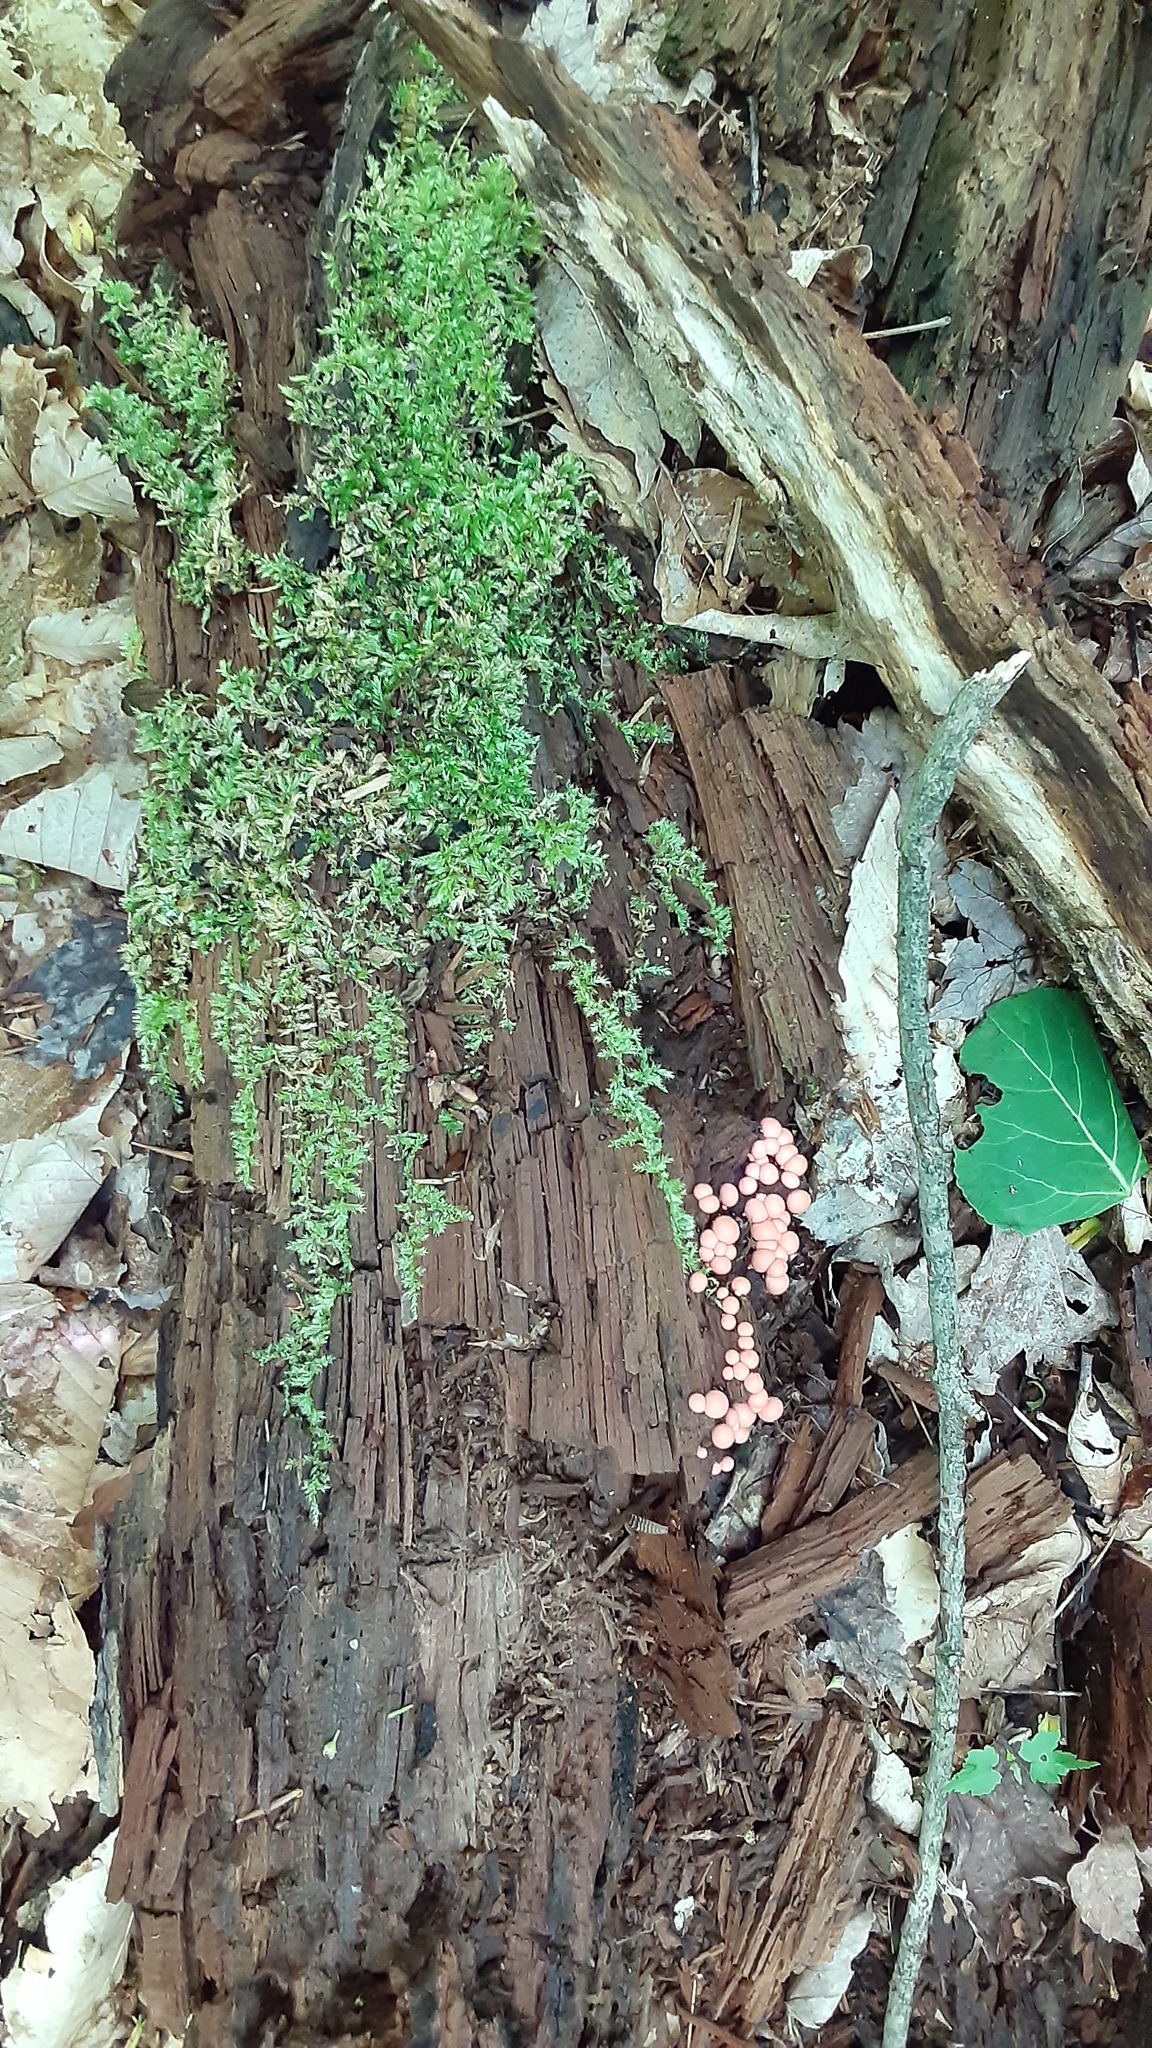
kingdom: Protozoa
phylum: Mycetozoa
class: Myxomycetes
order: Cribrariales
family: Tubiferaceae
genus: Lycogala
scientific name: Lycogala epidendrum
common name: Wolf's milk
